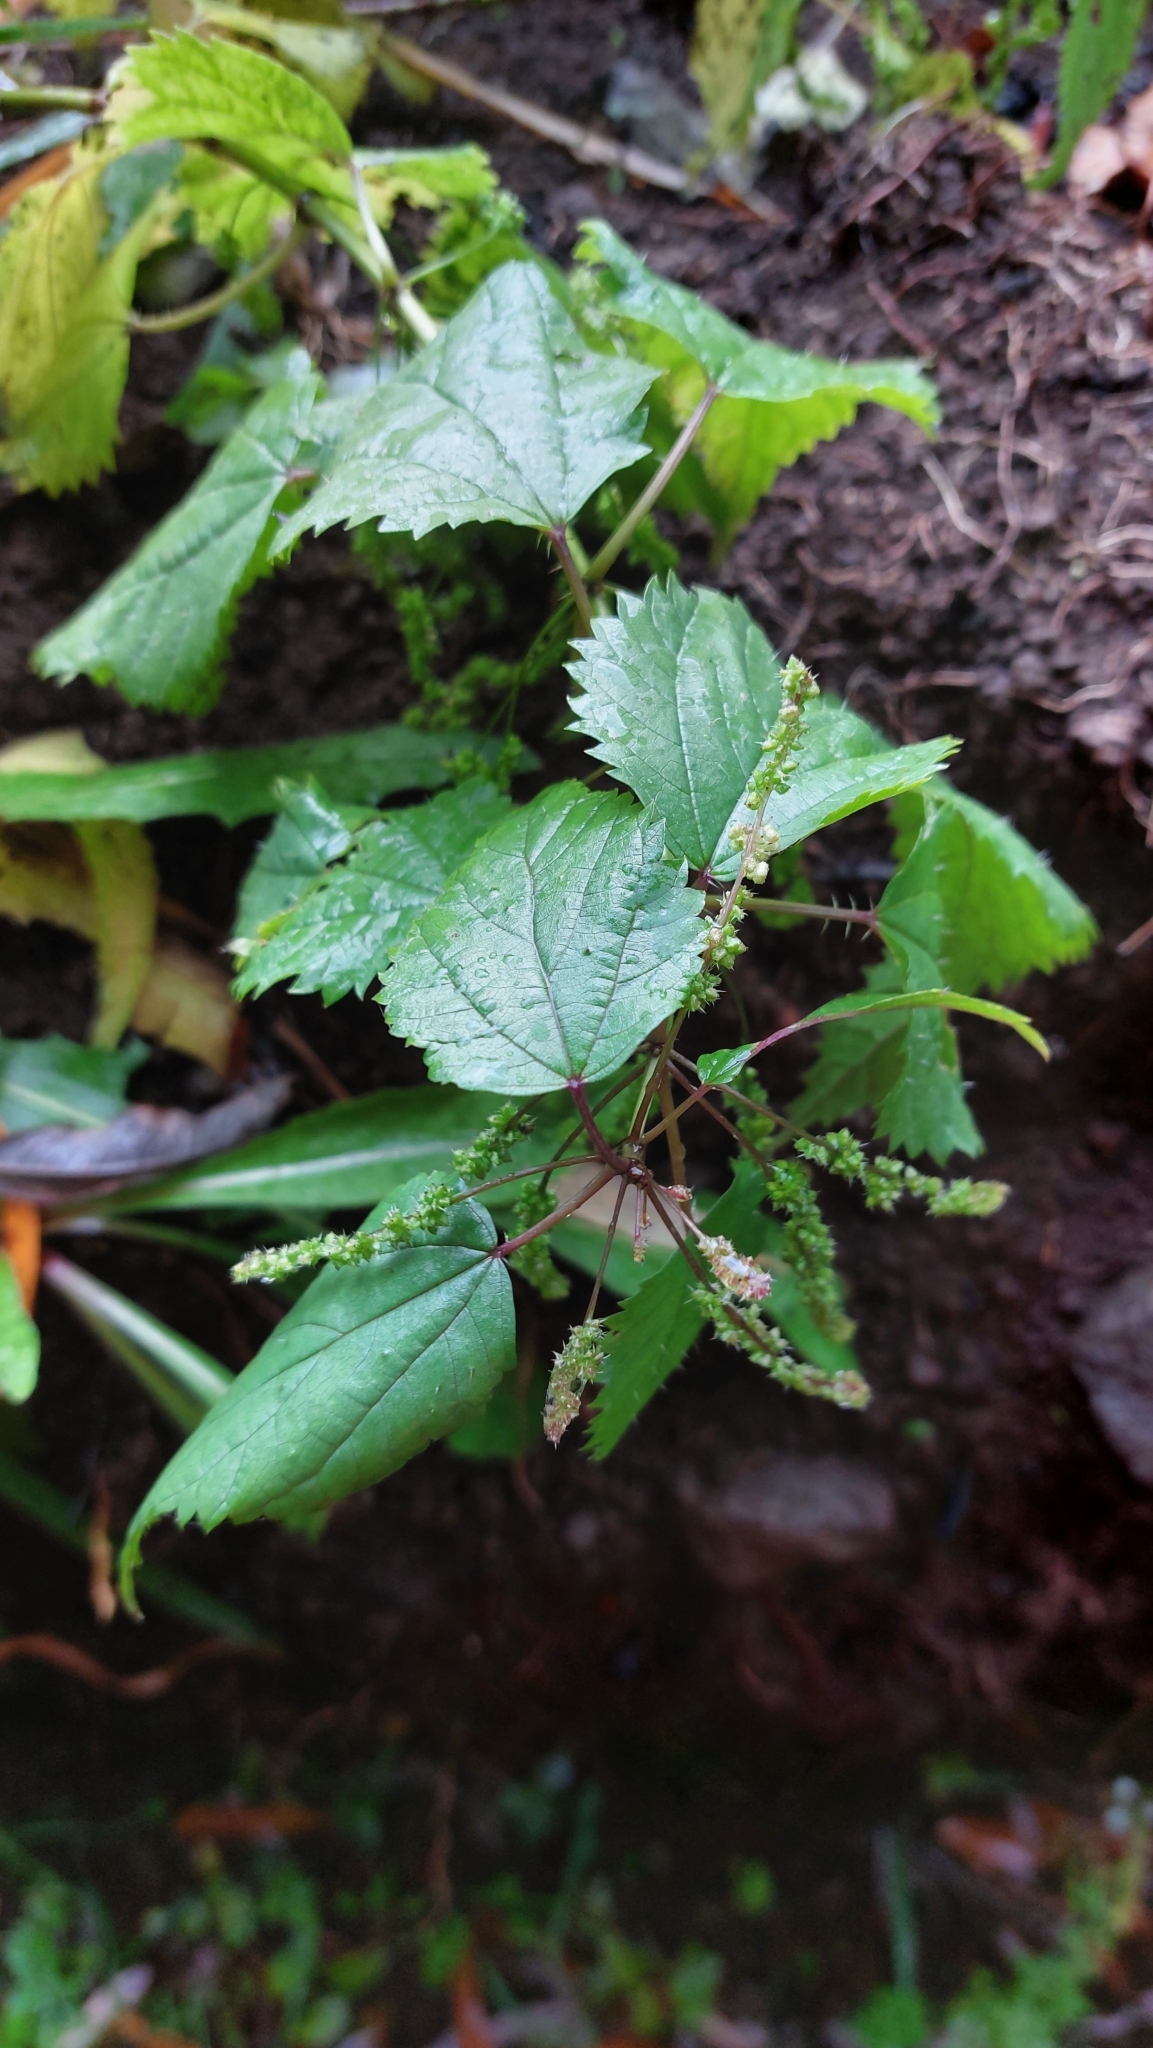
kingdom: Plantae
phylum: Tracheophyta
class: Magnoliopsida
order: Rosales
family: Urticaceae
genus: Urtica
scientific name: Urtica membranacea
